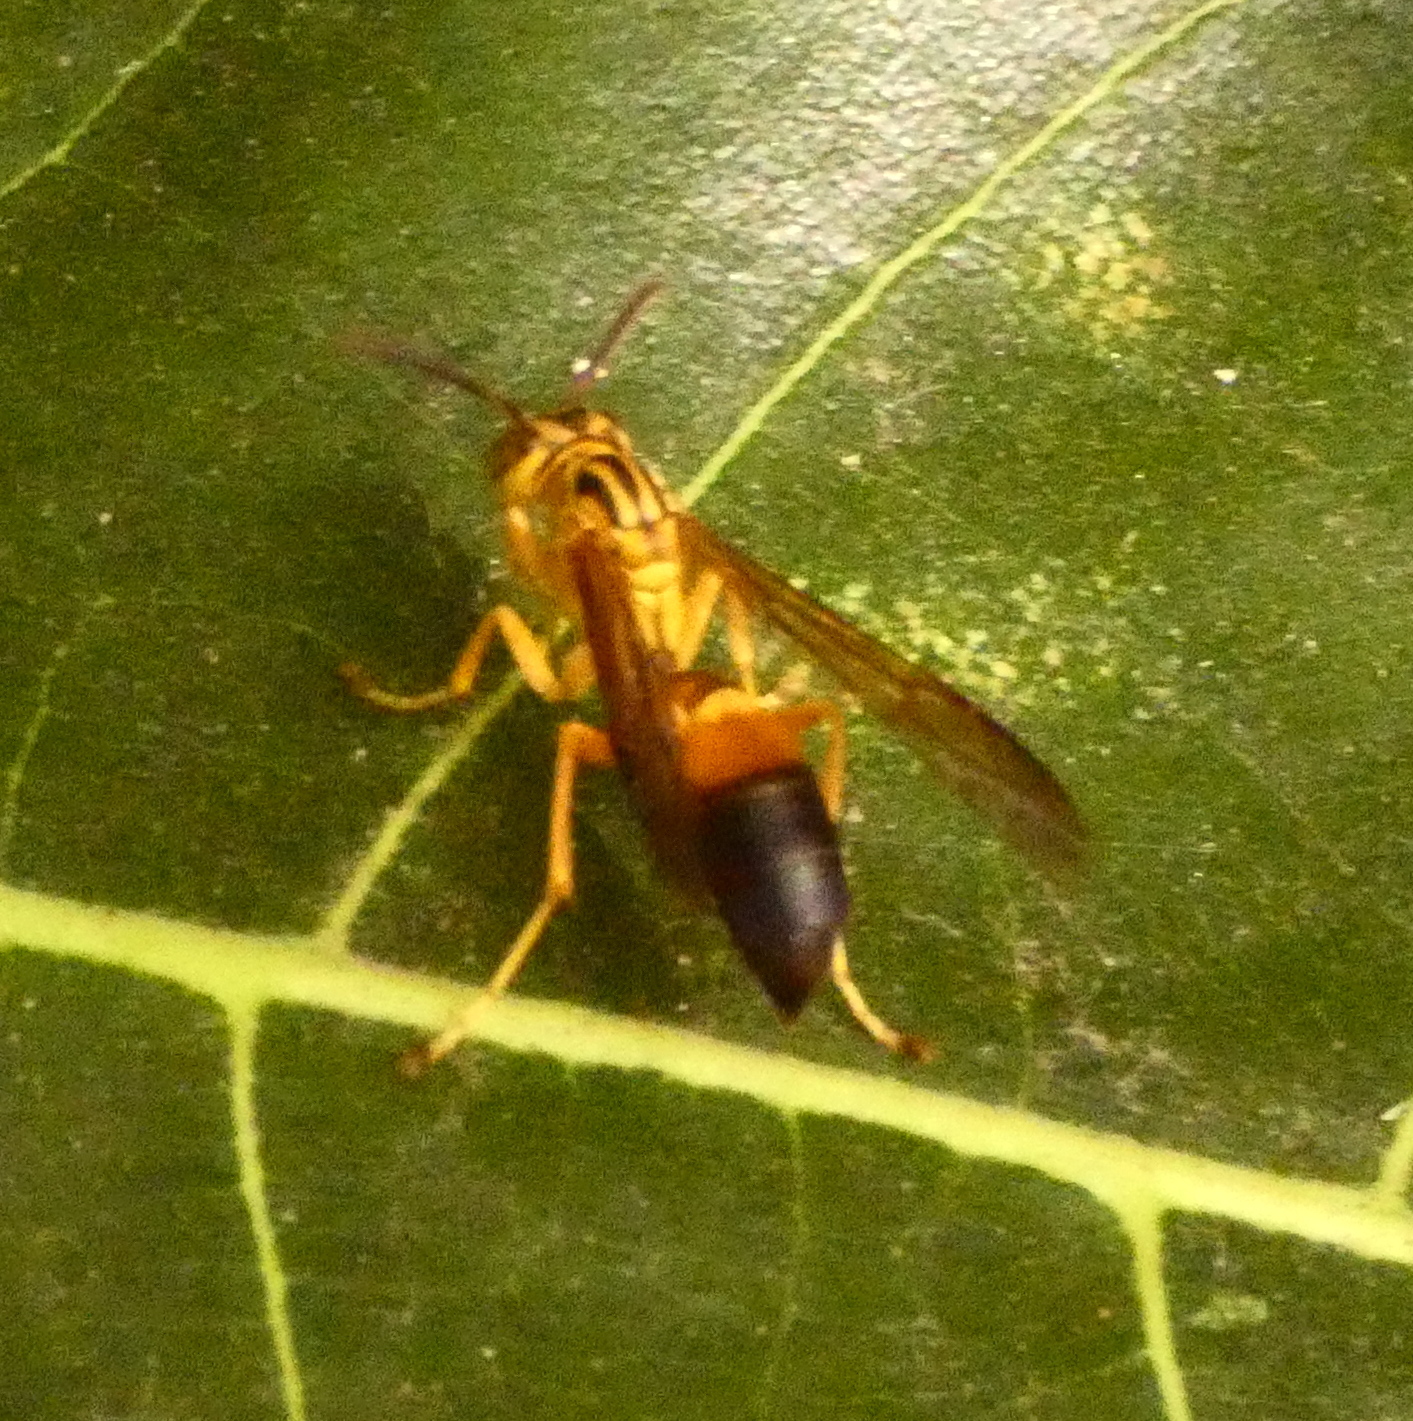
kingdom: Animalia
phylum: Arthropoda
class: Insecta
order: Hymenoptera
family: Vespidae
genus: Agelaia
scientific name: Agelaia pallipes
